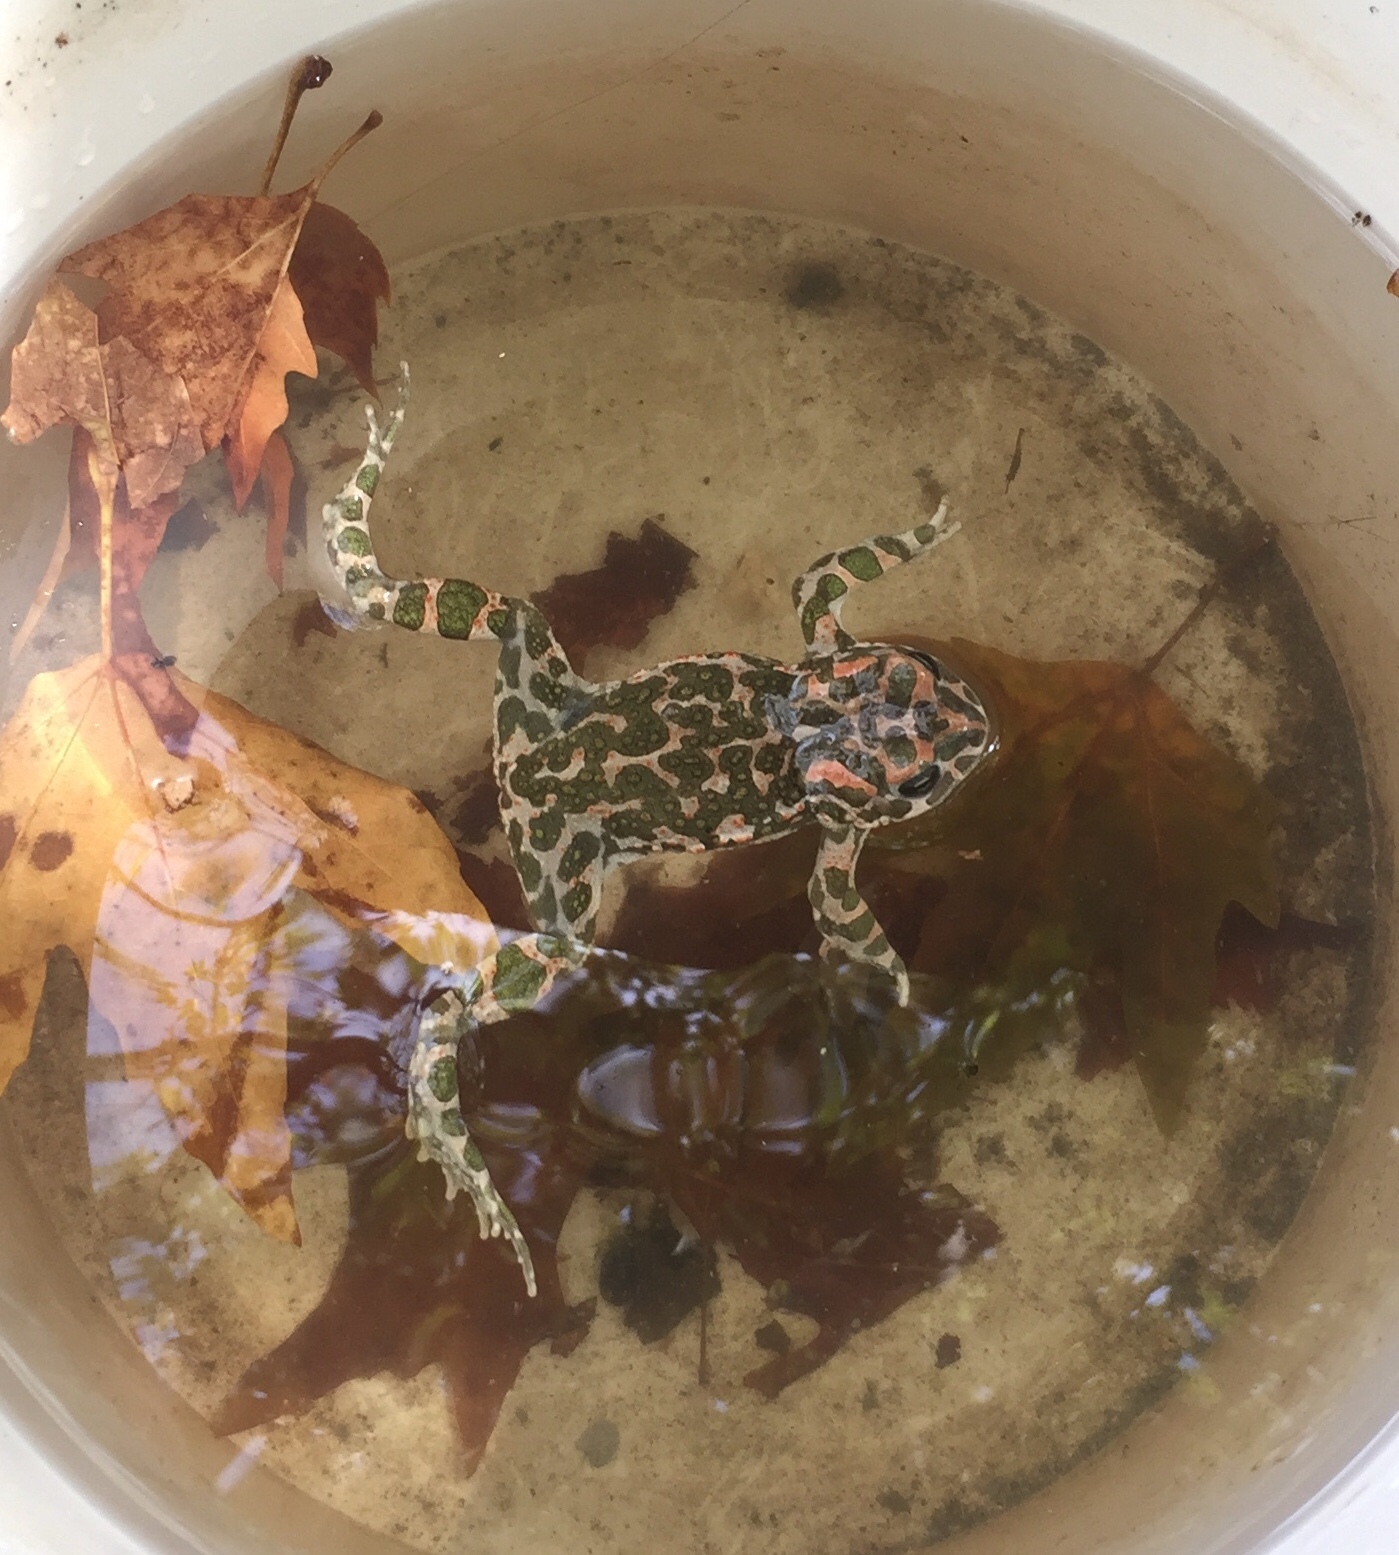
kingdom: Animalia
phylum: Chordata
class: Amphibia
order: Anura
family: Bufonidae
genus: Bufotes
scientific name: Bufotes viridis
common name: European green toad
